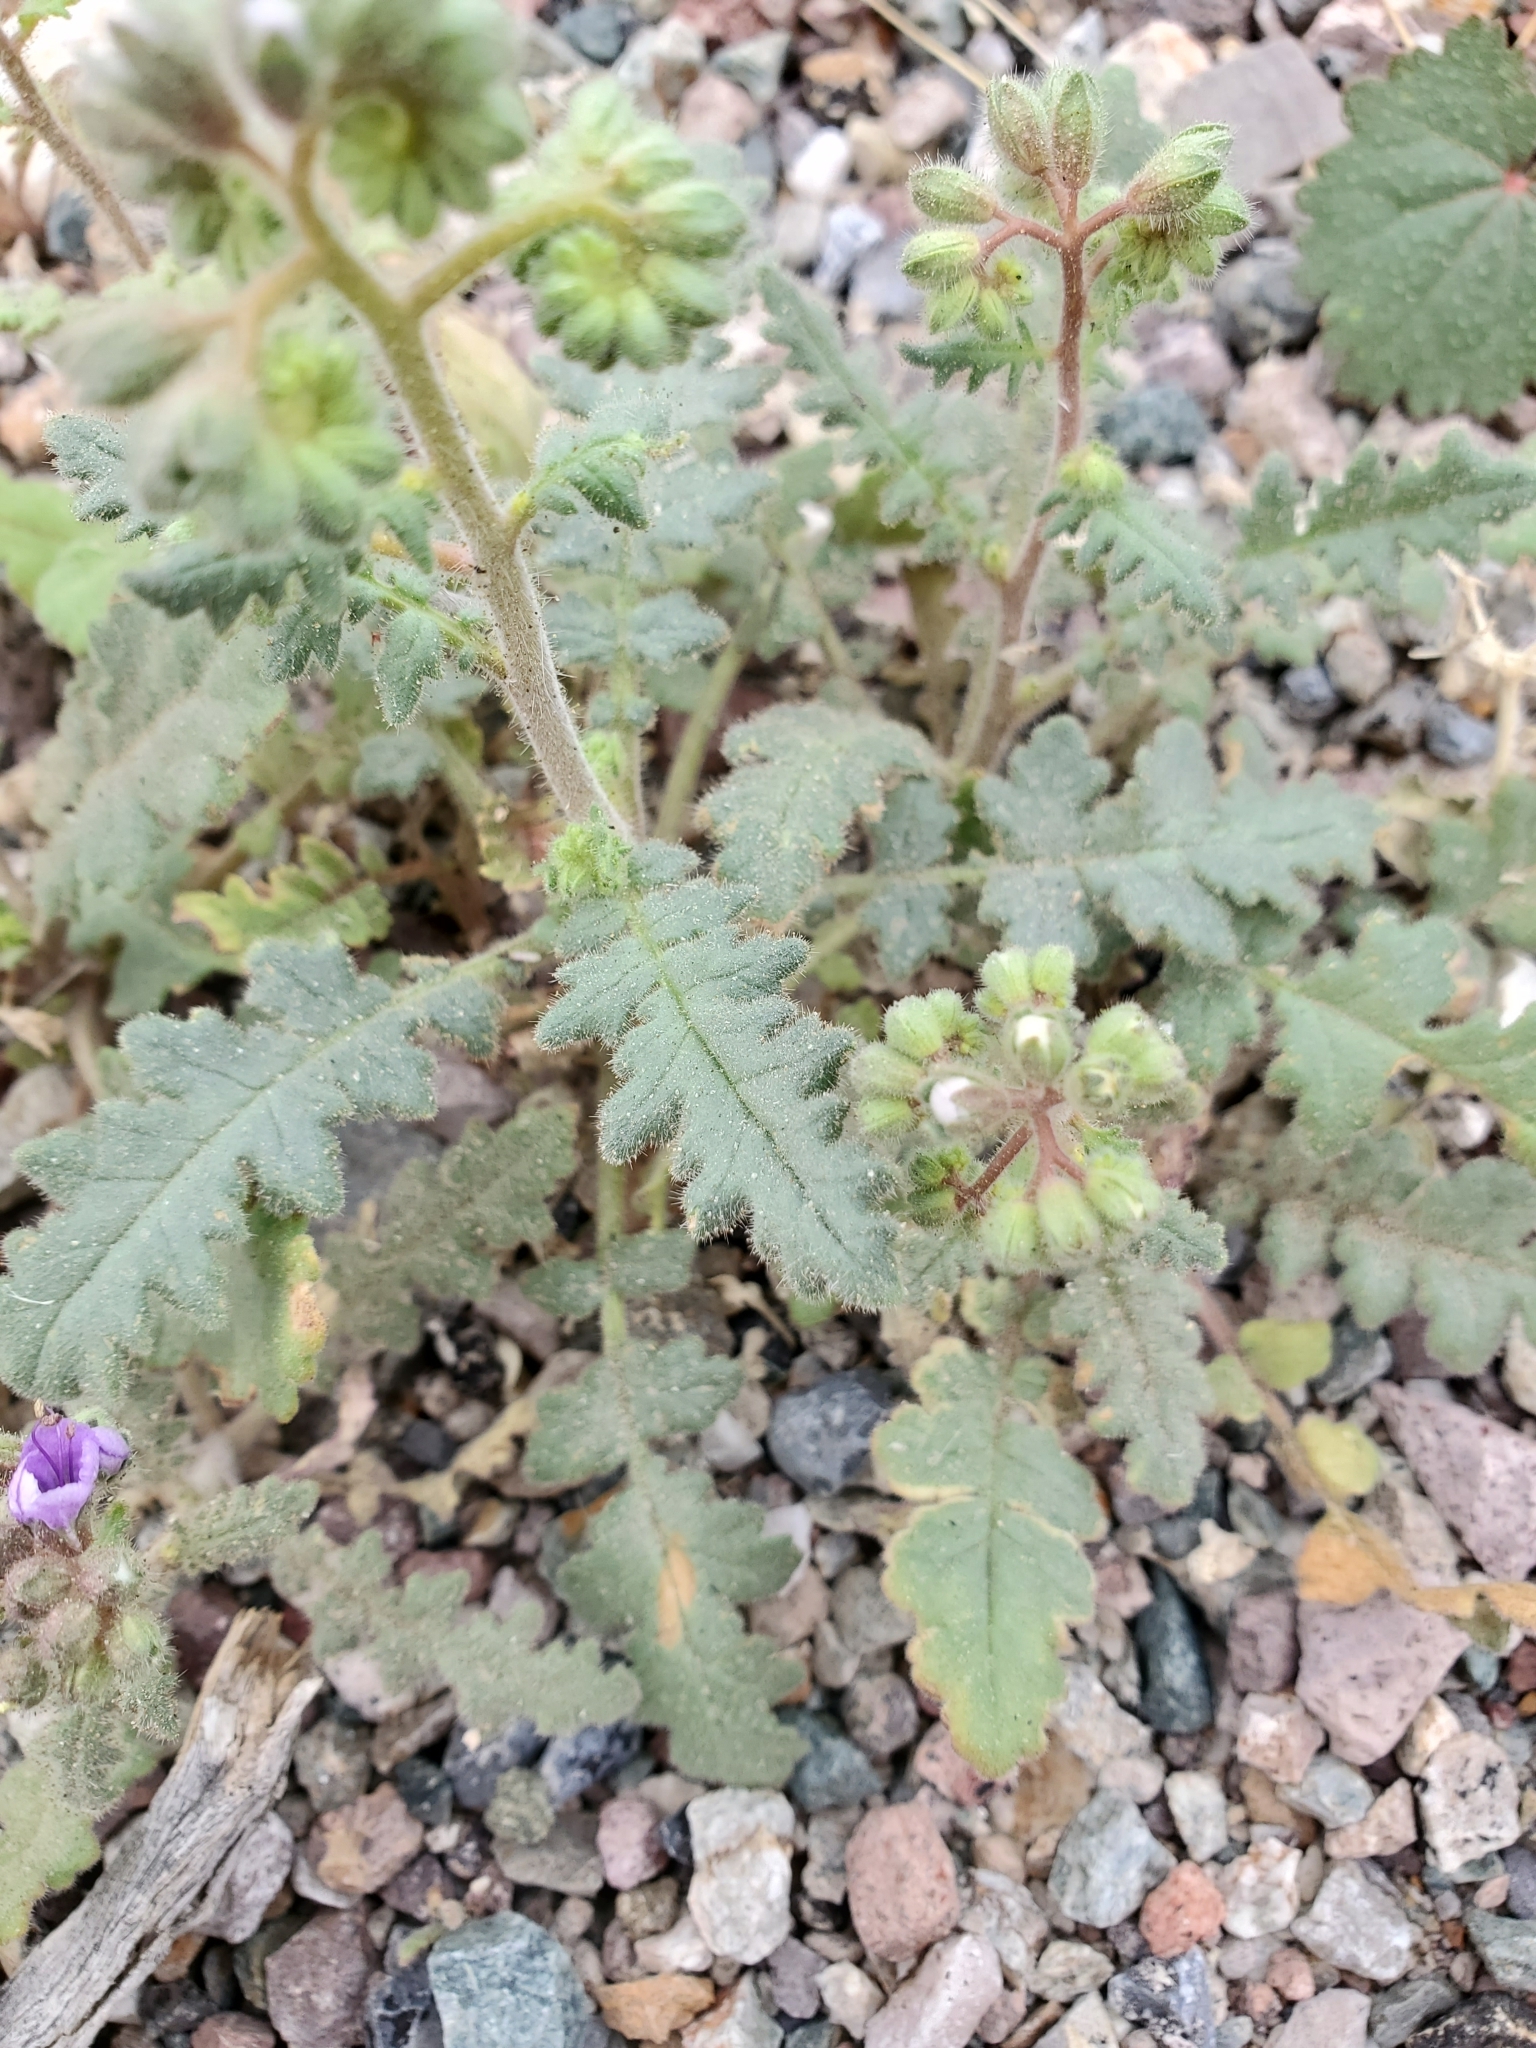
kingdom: Plantae
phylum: Tracheophyta
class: Magnoliopsida
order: Boraginales
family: Hydrophyllaceae
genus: Phacelia
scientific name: Phacelia crenulata
